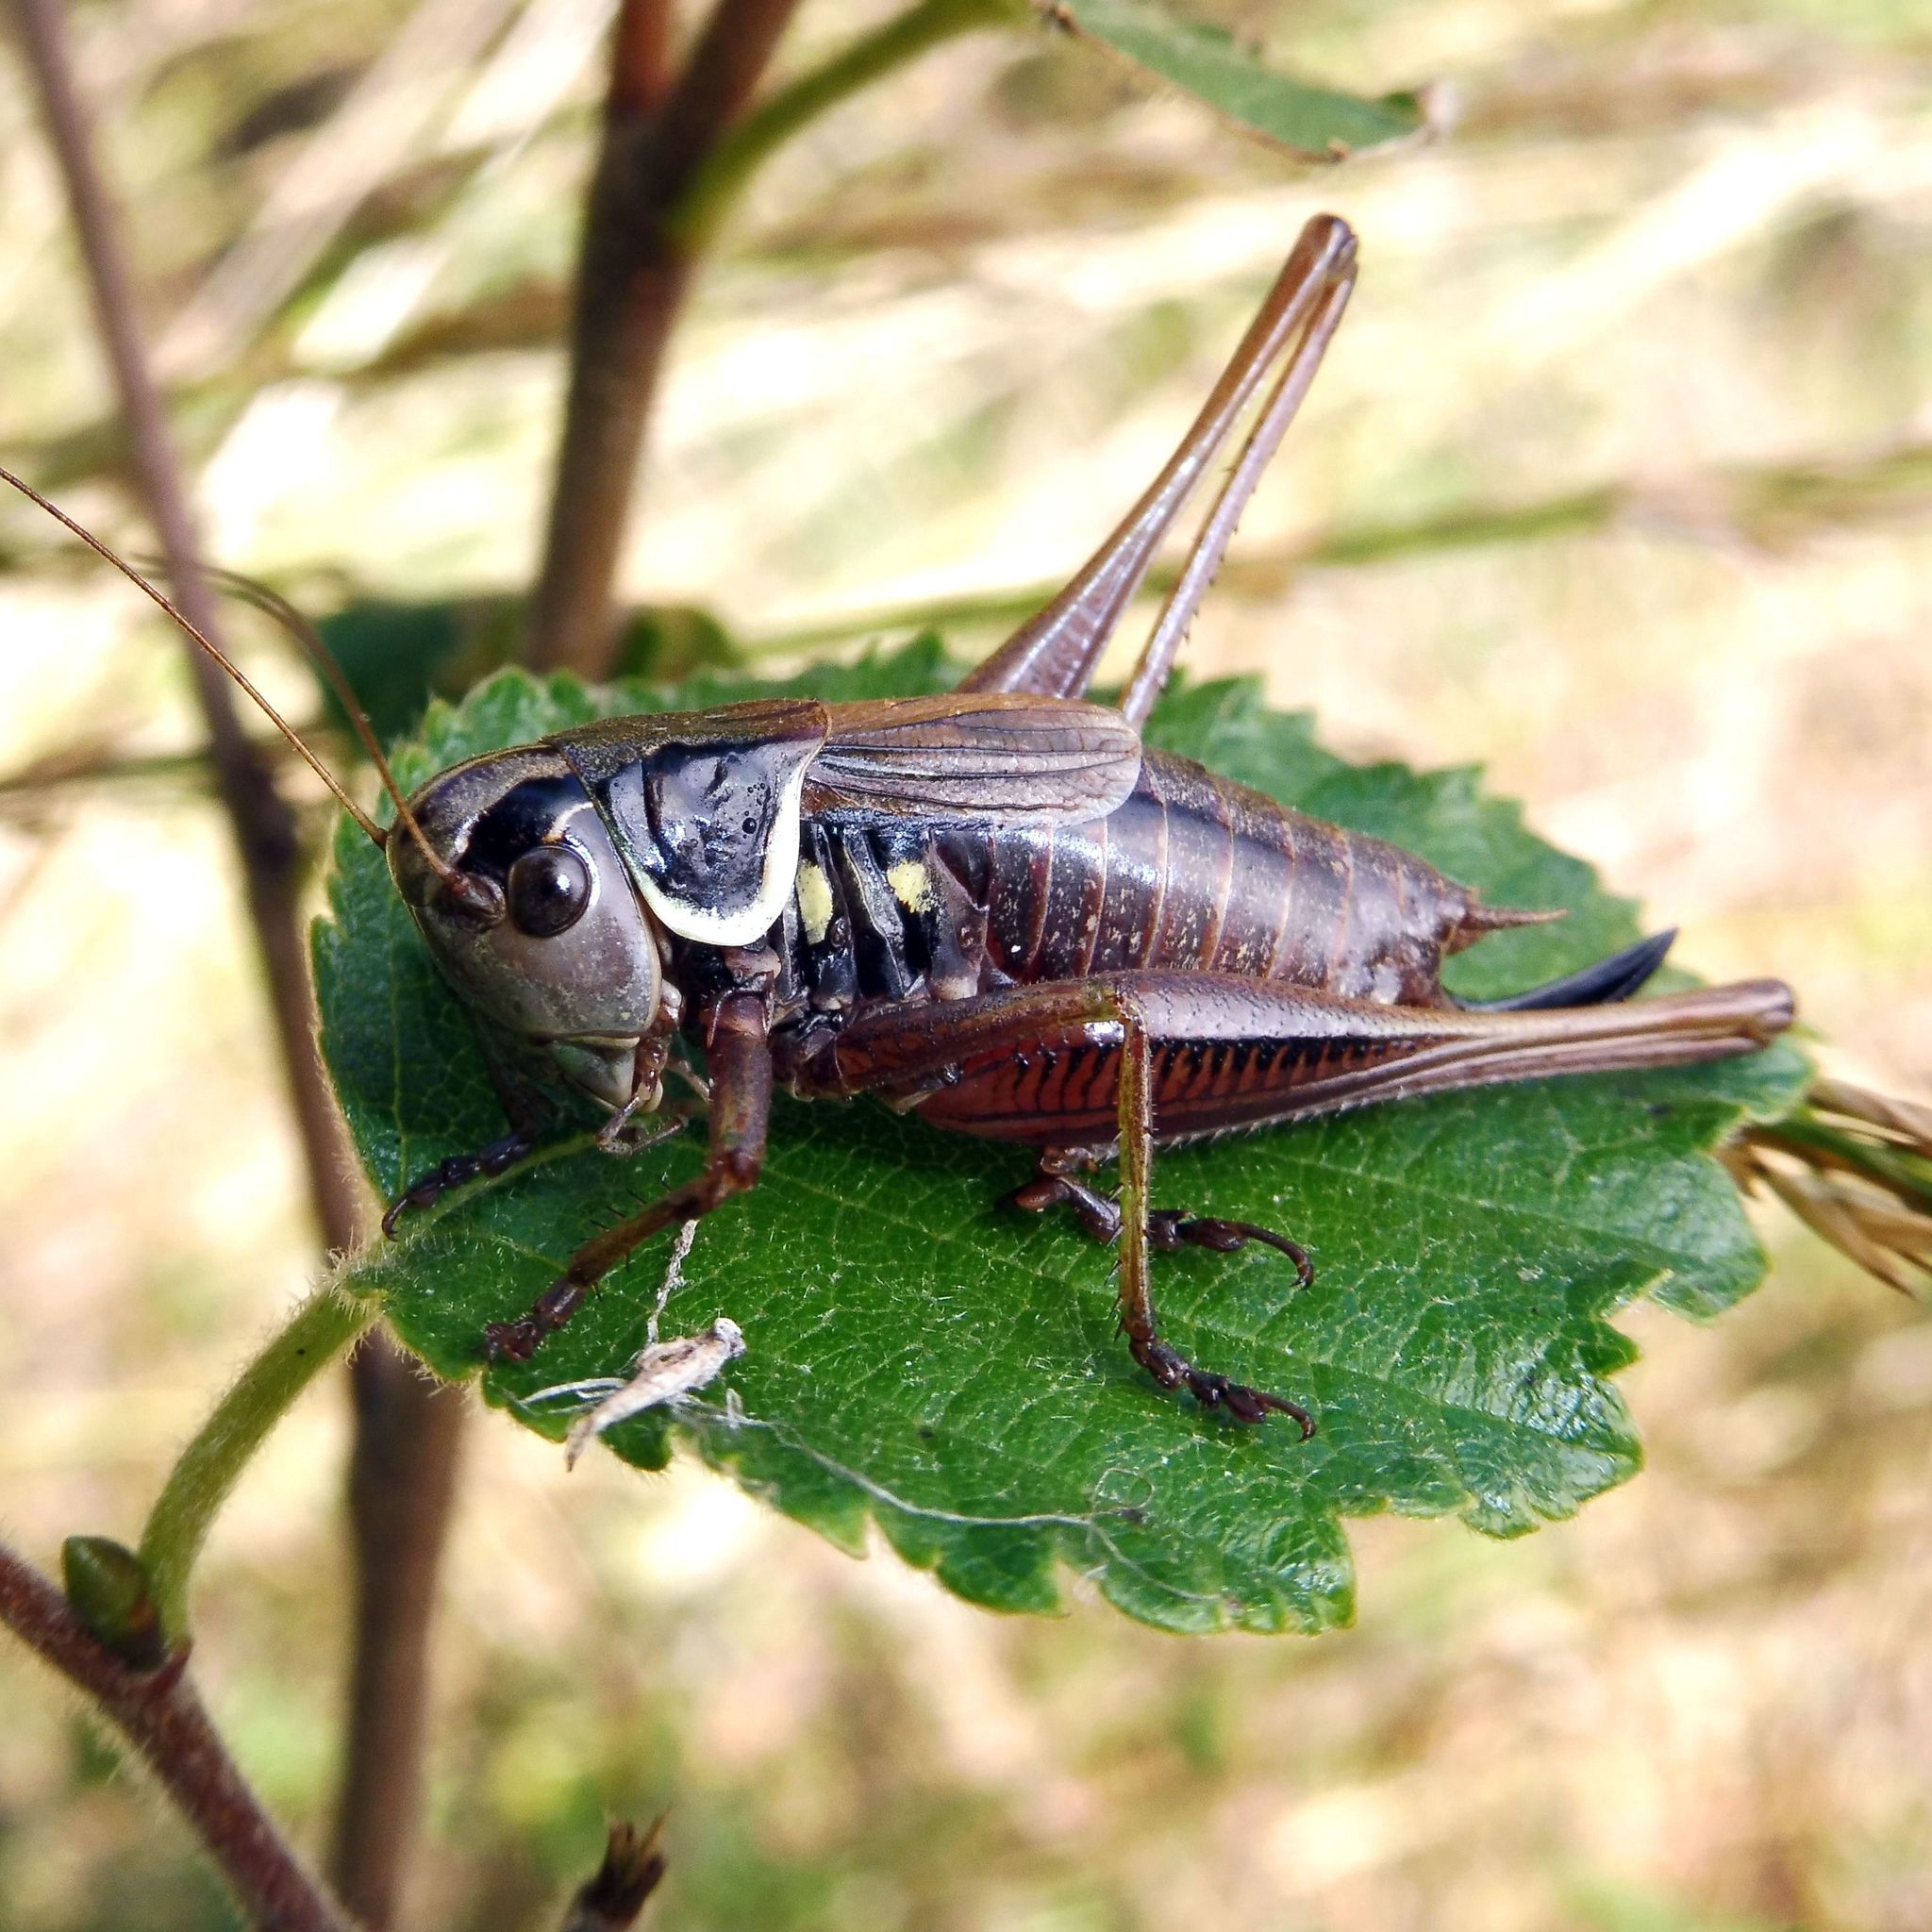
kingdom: Animalia
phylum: Arthropoda
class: Insecta
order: Orthoptera
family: Tettigoniidae
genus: Roeseliana
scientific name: Roeseliana roeselii
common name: Roesel's bush cricket
